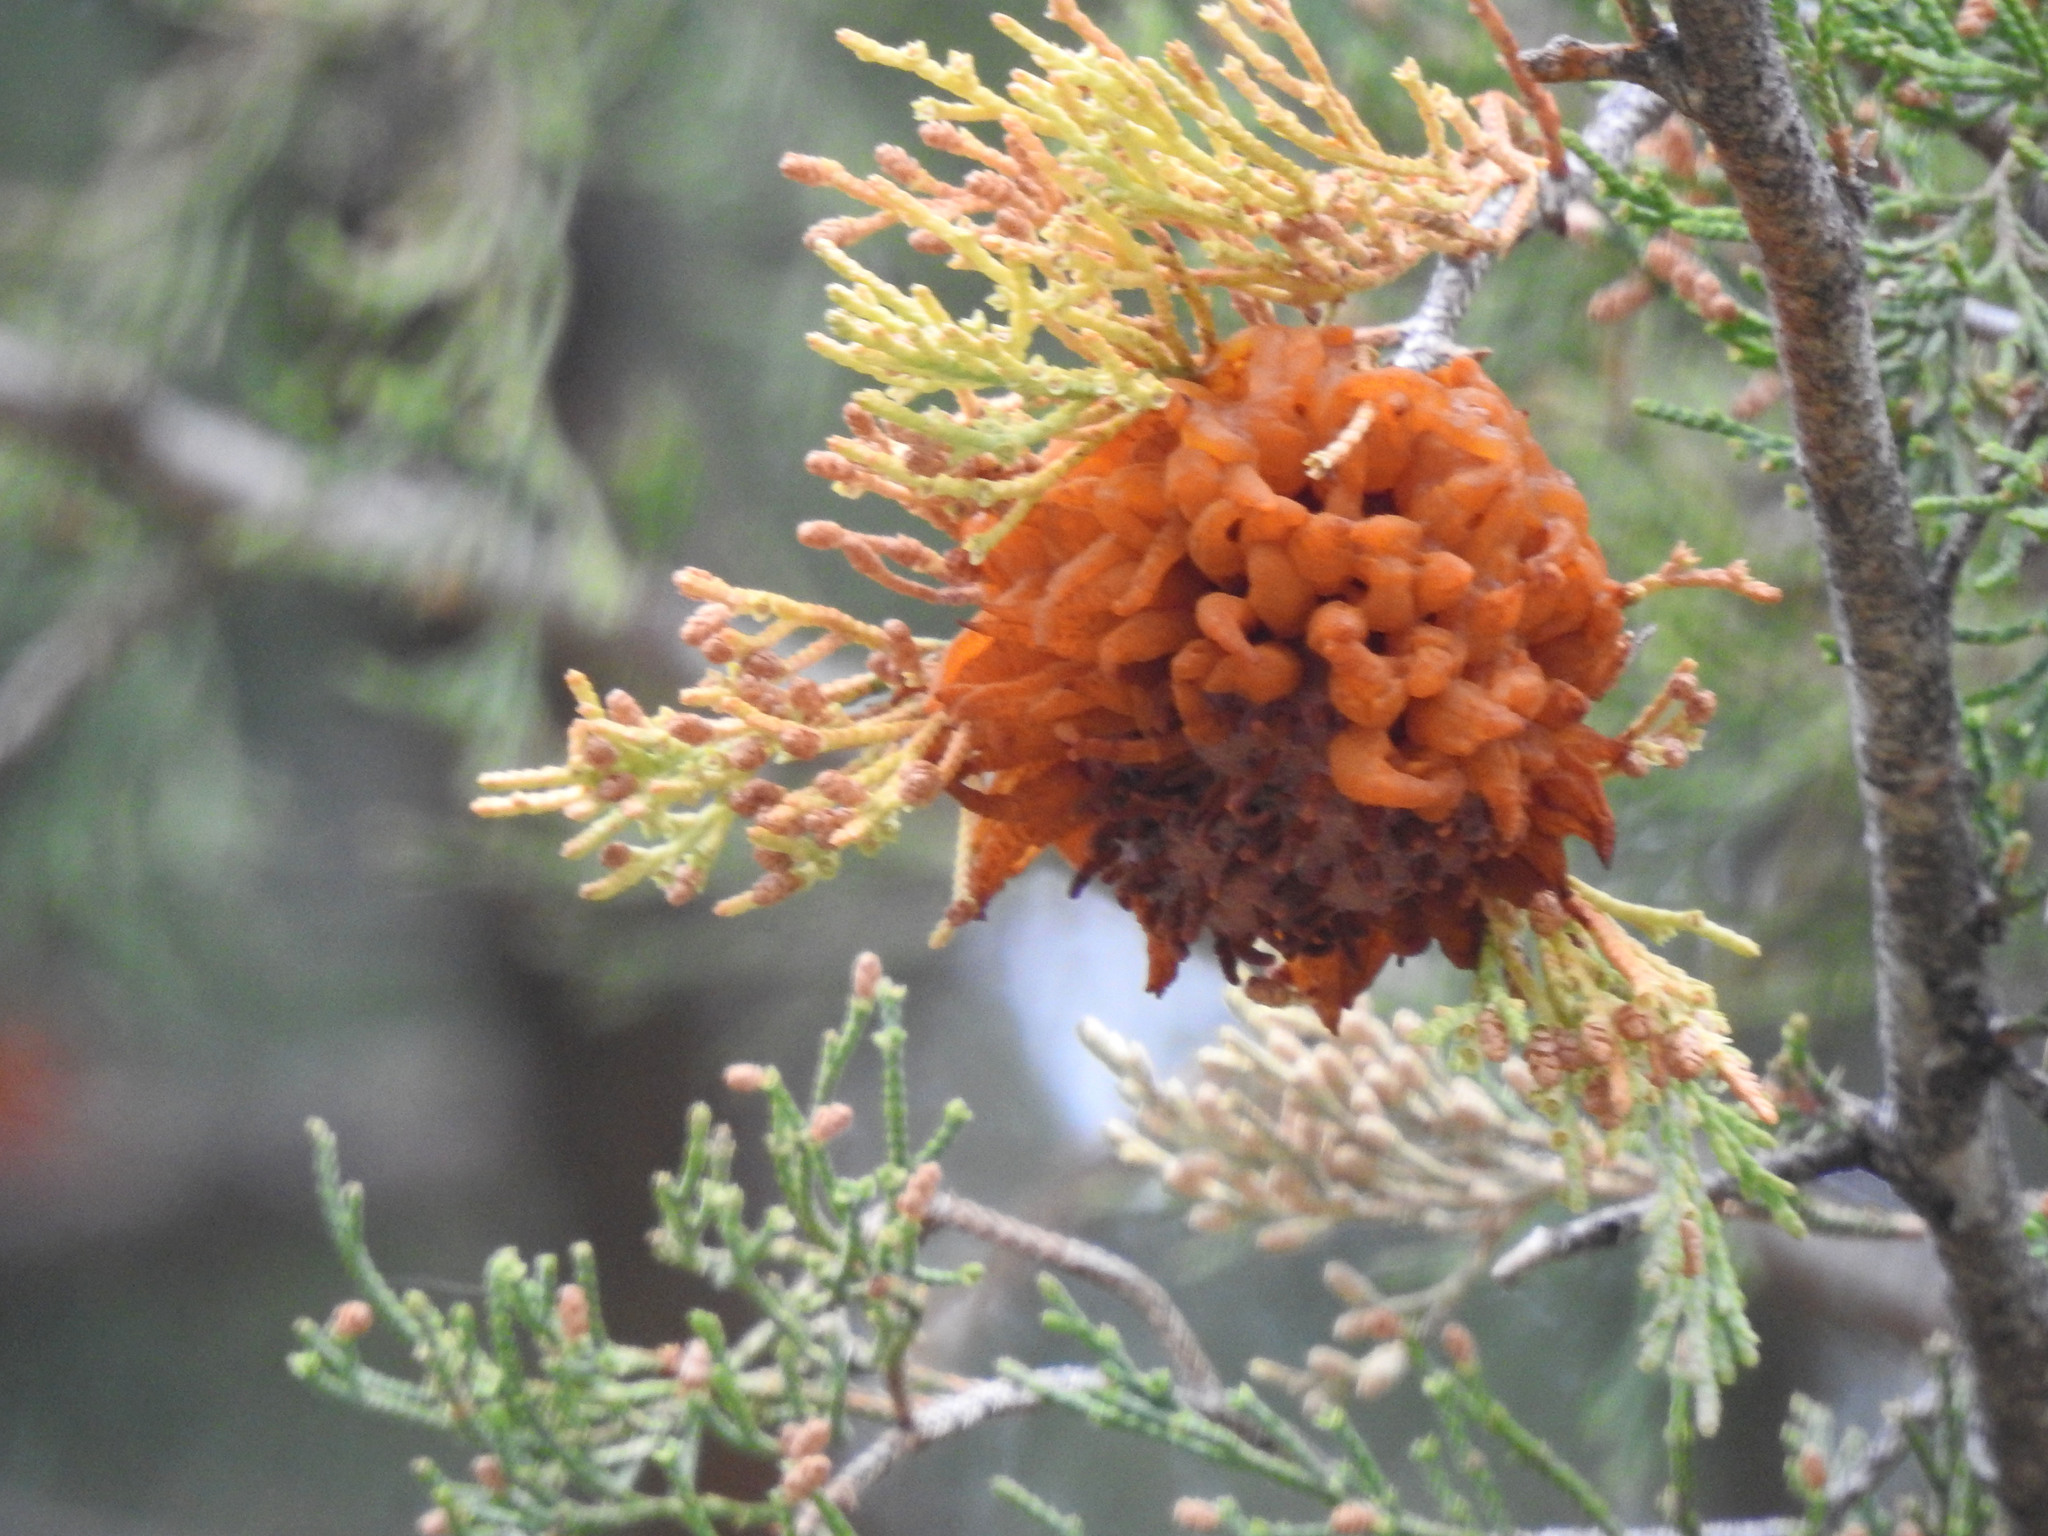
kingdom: Fungi
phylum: Basidiomycota
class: Pucciniomycetes
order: Pucciniales
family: Gymnosporangiaceae
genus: Gymnosporangium
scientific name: Gymnosporangium juniperi-virginianae
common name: Juniper-apple rust
